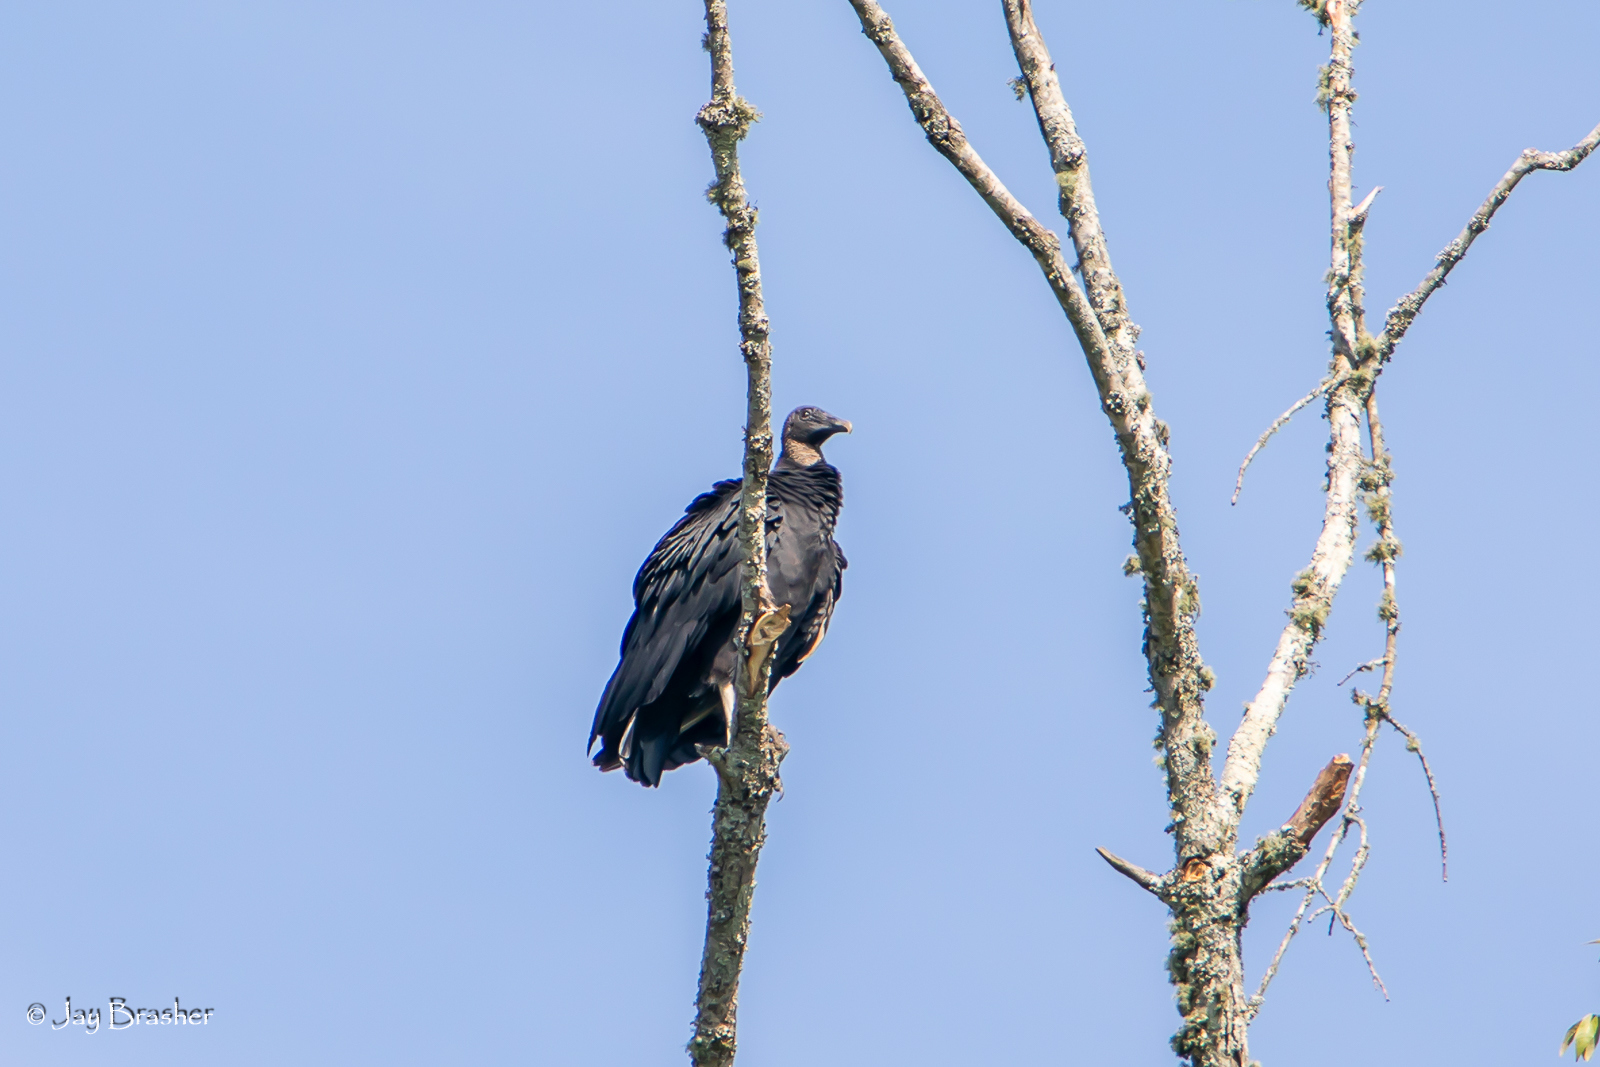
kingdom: Animalia
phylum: Chordata
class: Aves
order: Accipitriformes
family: Cathartidae
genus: Coragyps
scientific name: Coragyps atratus
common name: Black vulture
